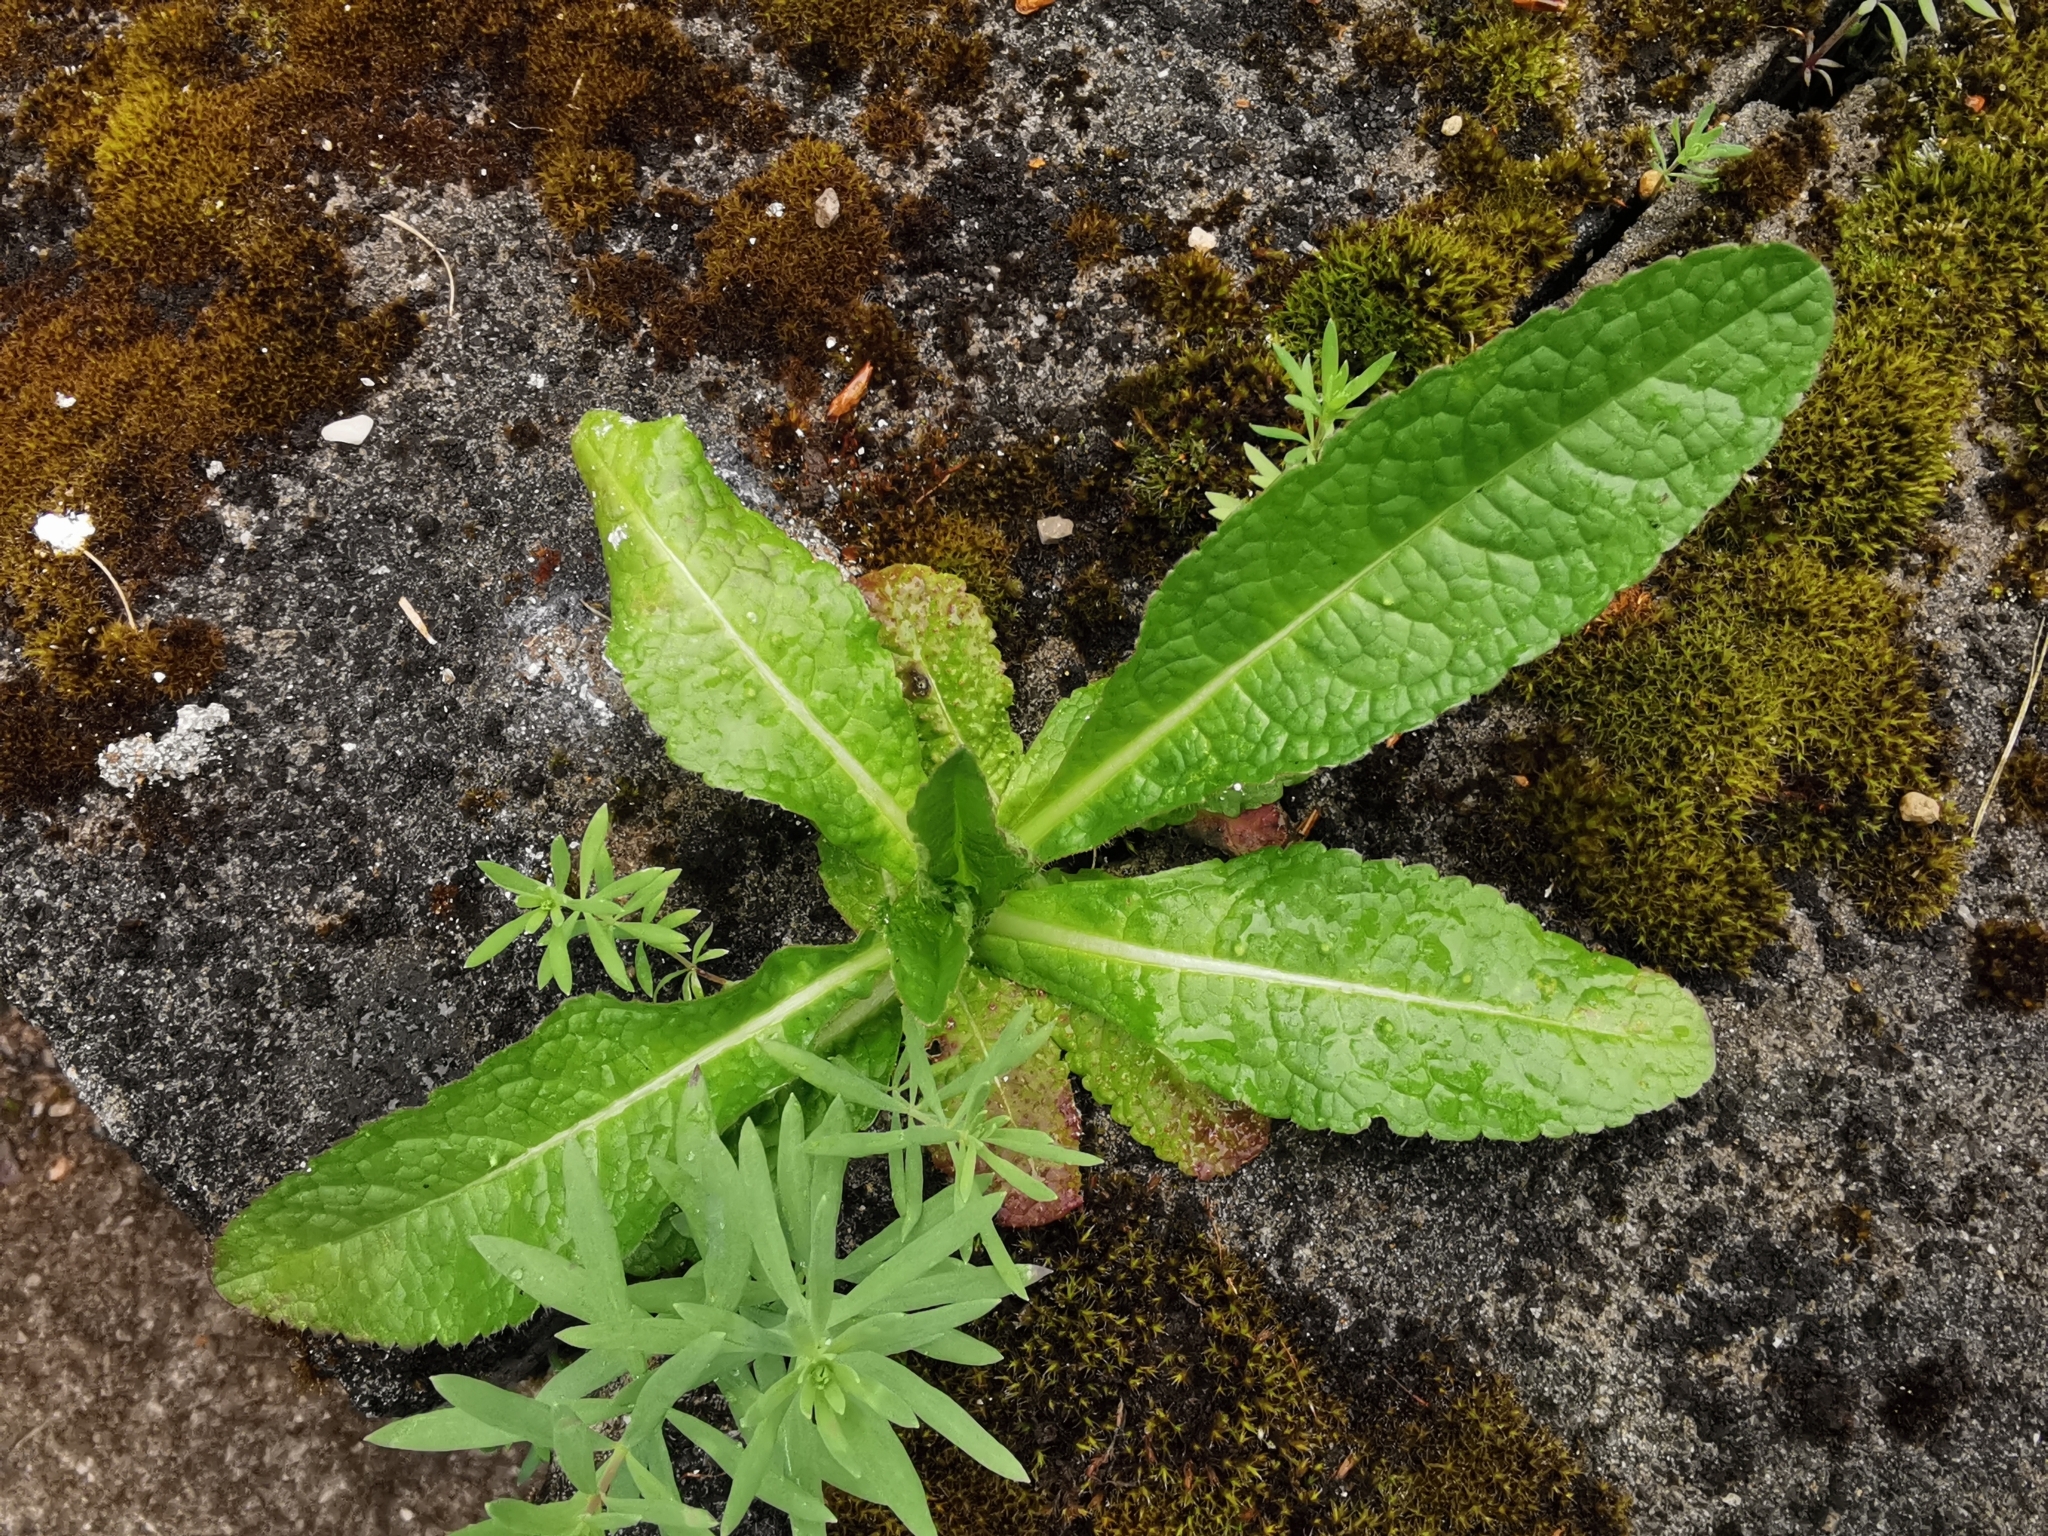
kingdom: Plantae
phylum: Tracheophyta
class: Magnoliopsida
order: Dipsacales
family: Caprifoliaceae
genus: Dipsacus
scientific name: Dipsacus fullonum
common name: Teasel
